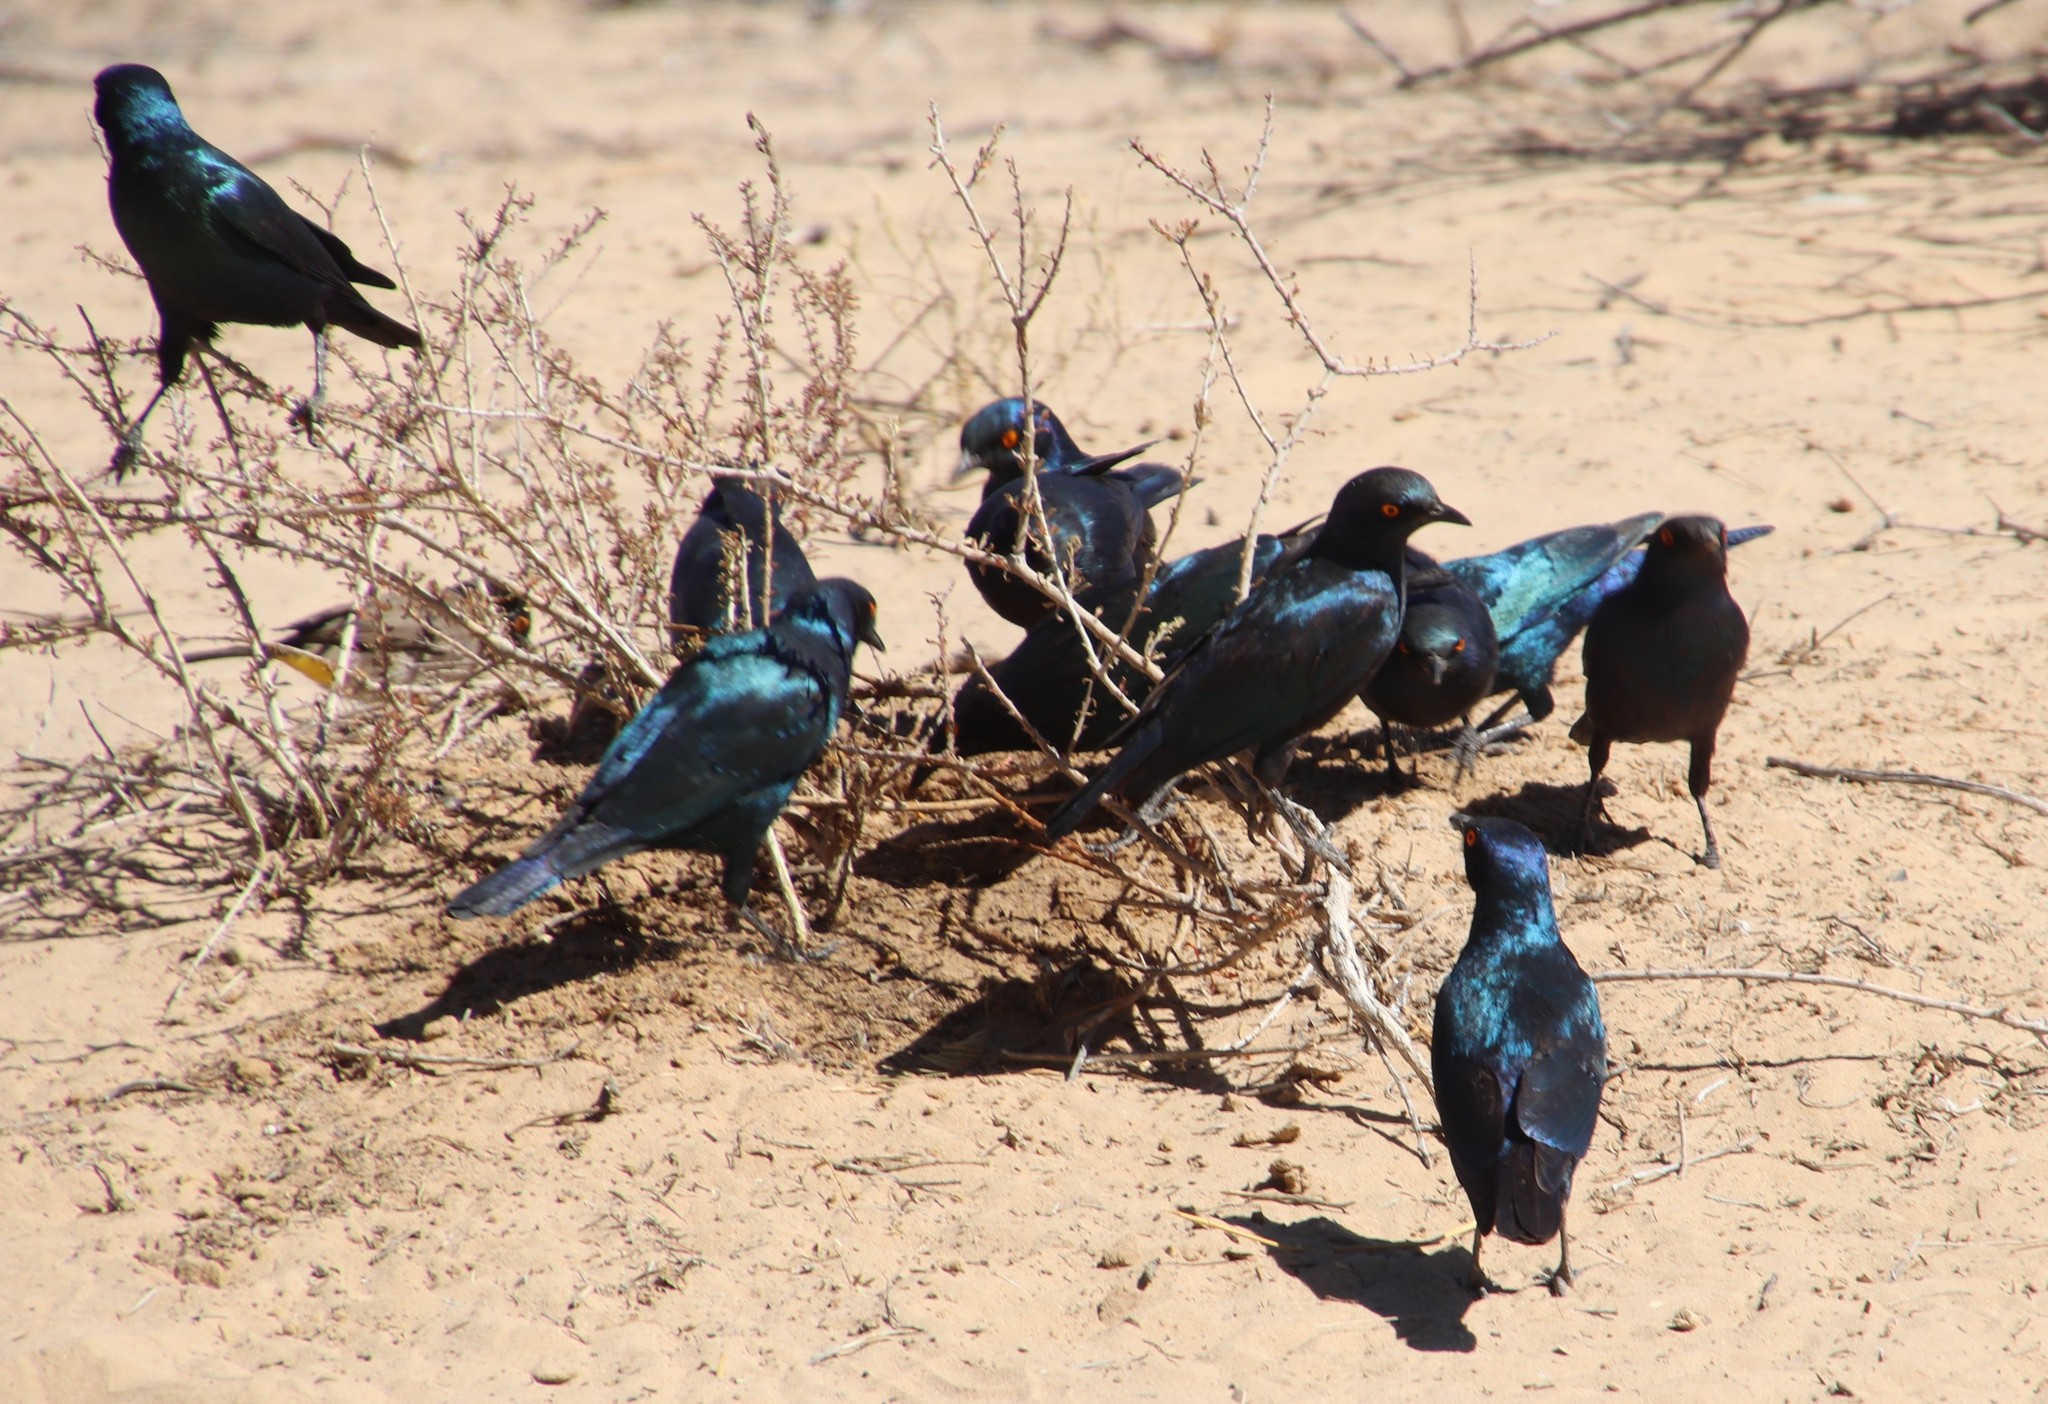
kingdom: Animalia
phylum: Chordata
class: Aves
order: Passeriformes
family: Sturnidae
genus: Lamprotornis
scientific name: Lamprotornis nitens
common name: Cape starling
